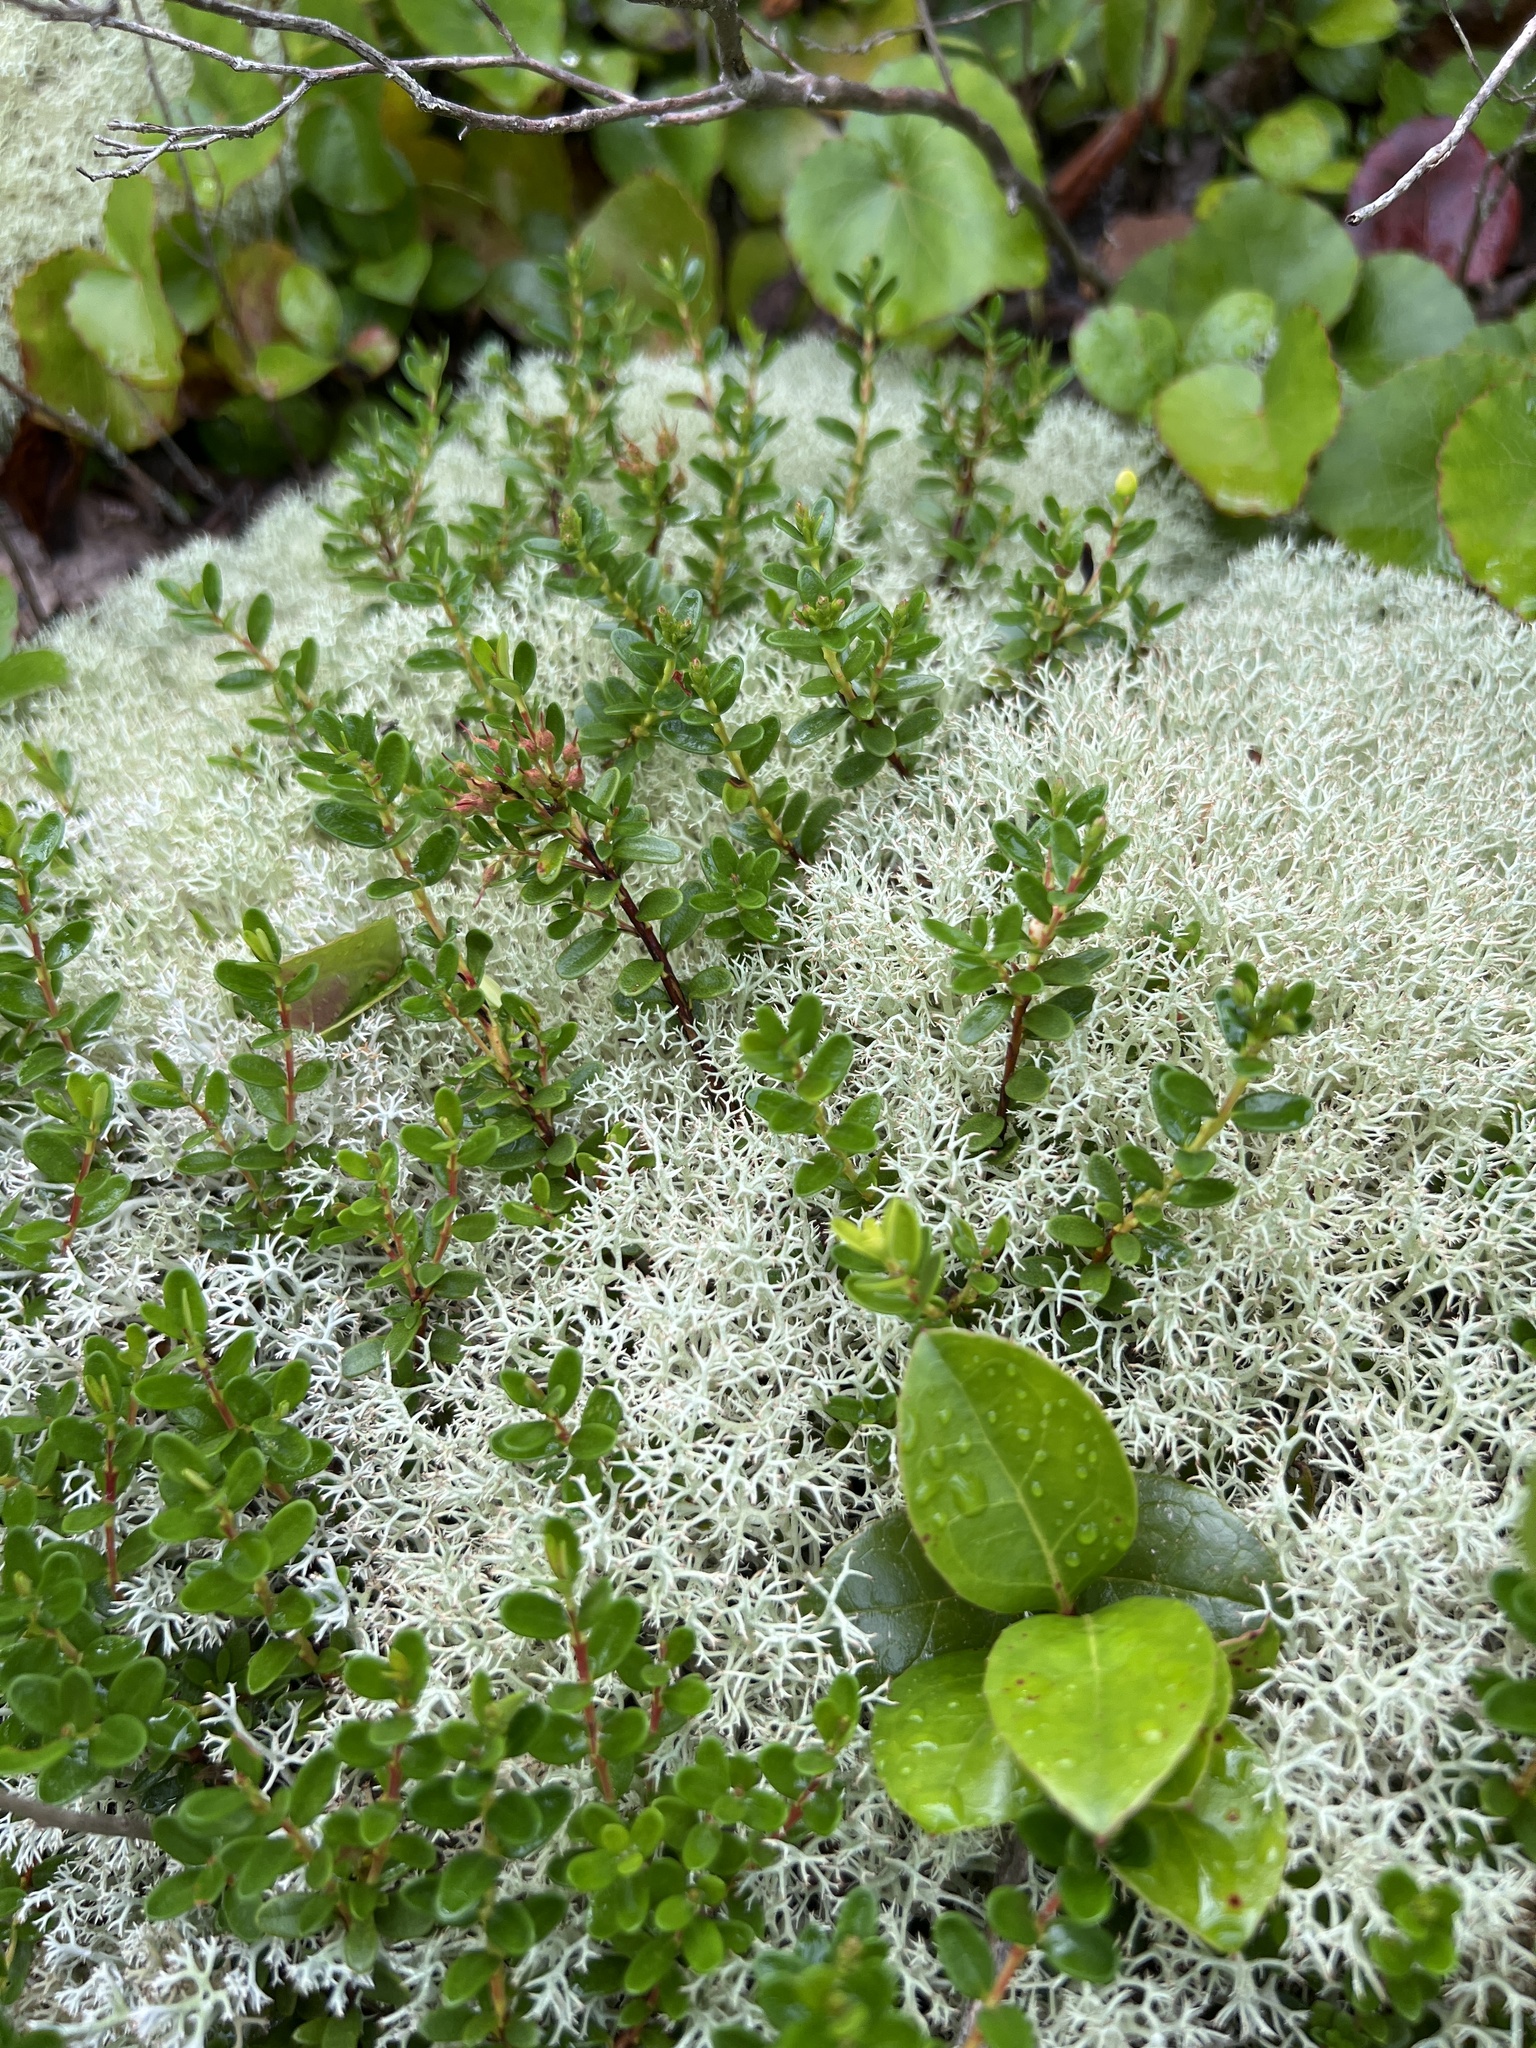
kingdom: Plantae
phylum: Tracheophyta
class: Magnoliopsida
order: Ericales
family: Ericaceae
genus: Kalmia
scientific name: Kalmia buxifolia
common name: Sandmyrtle
